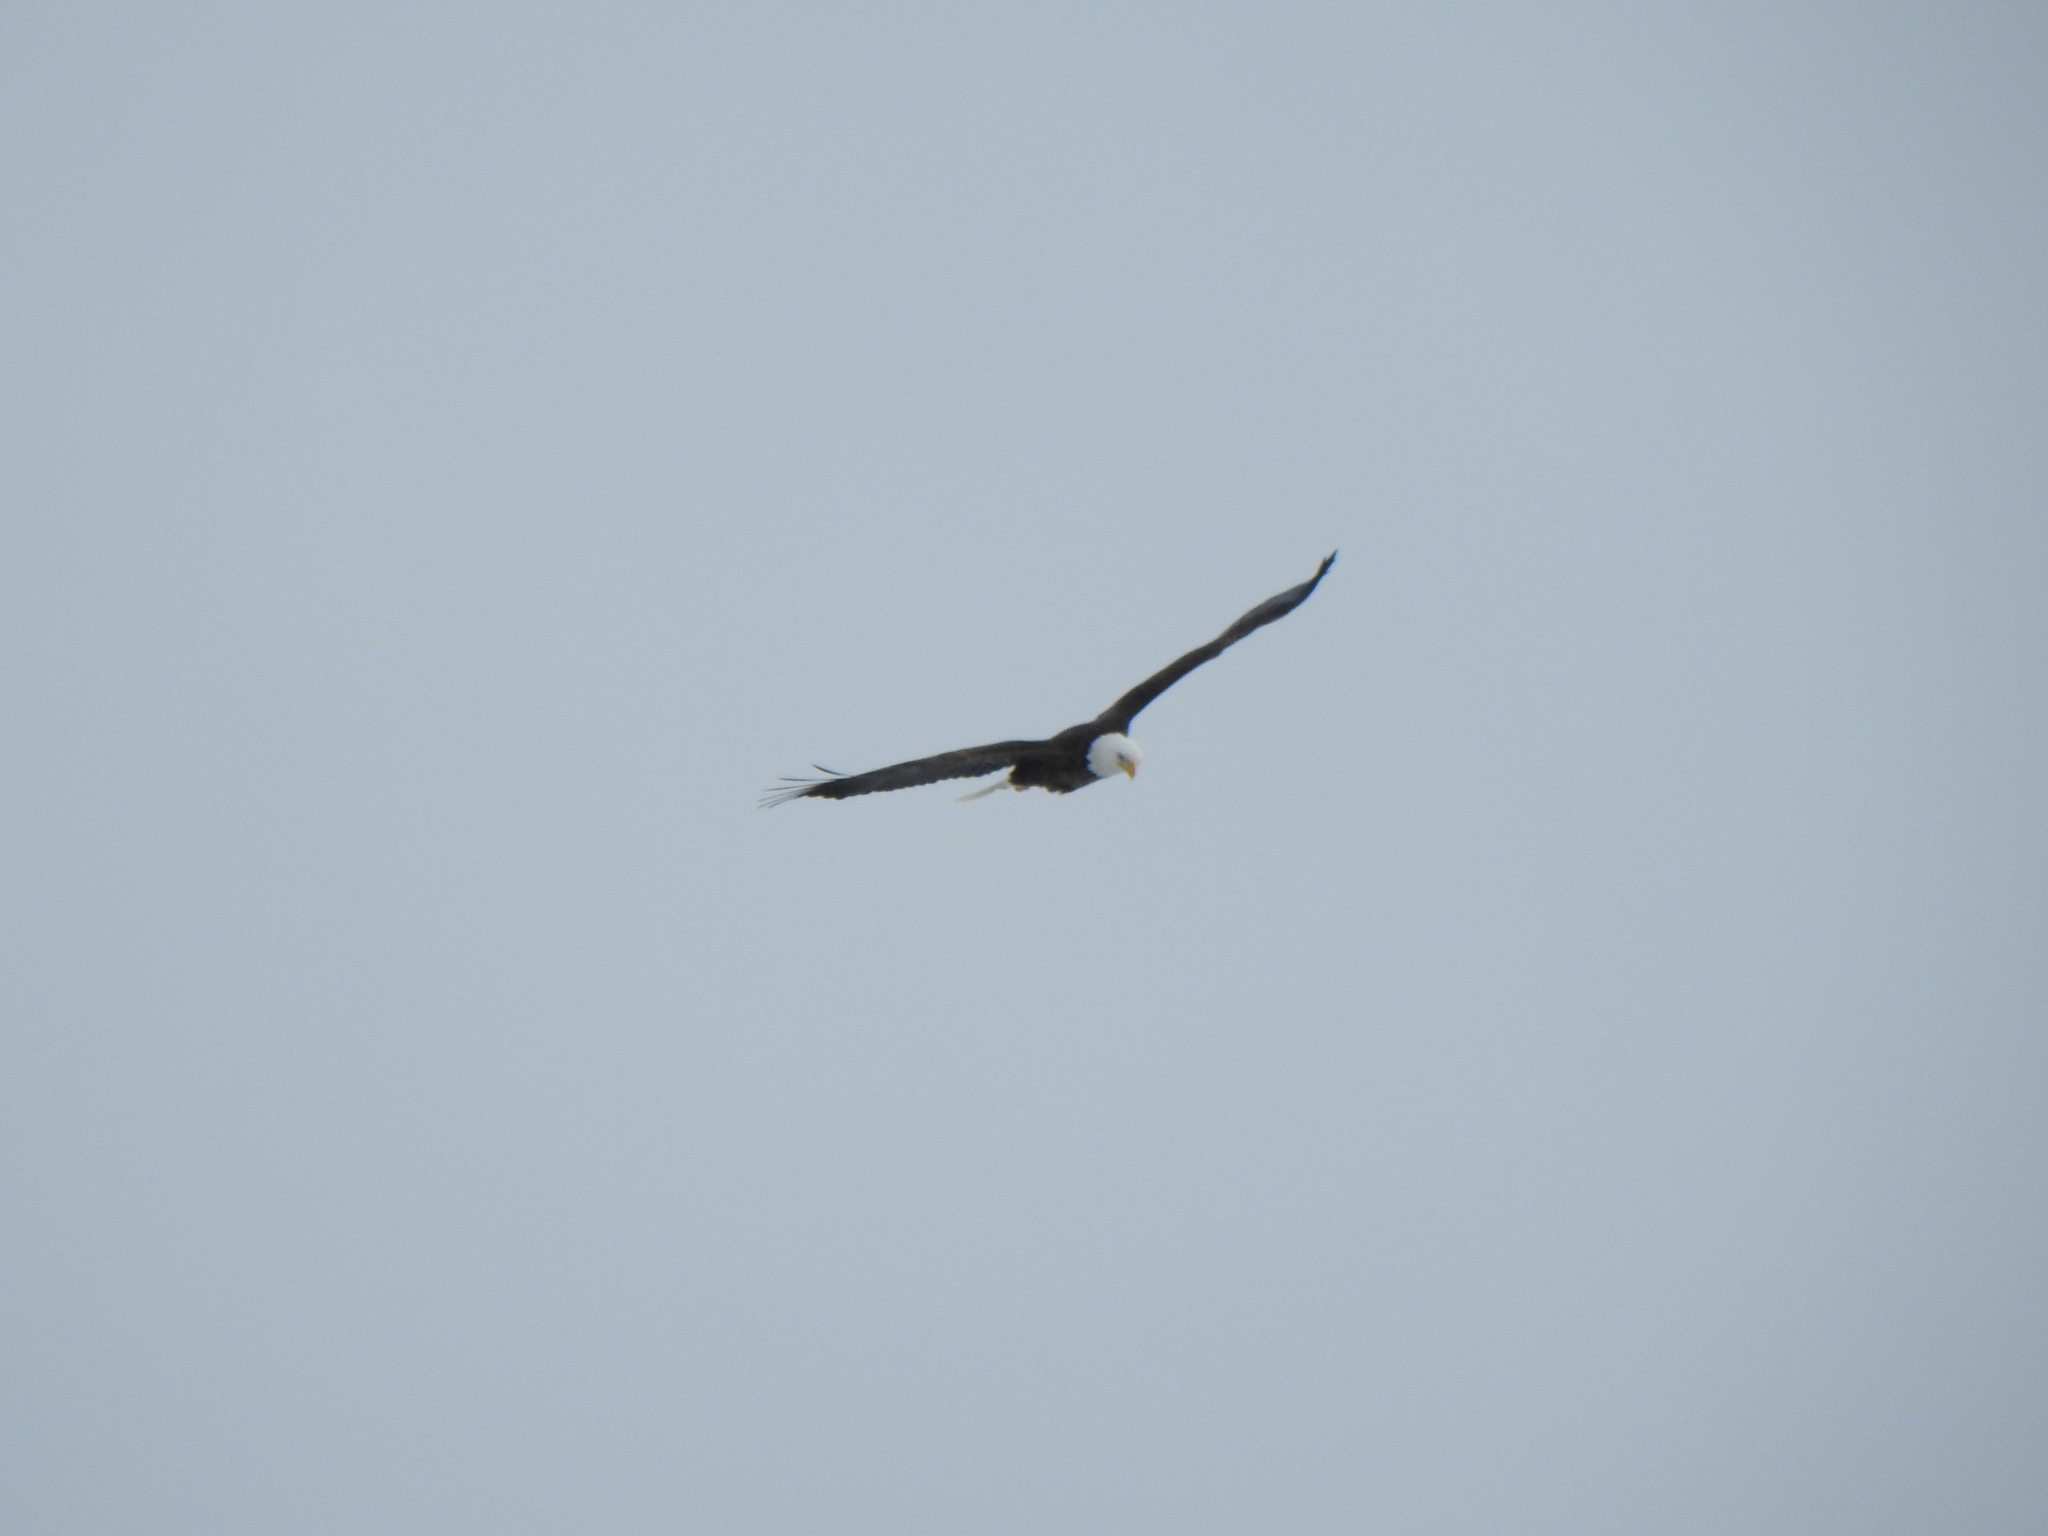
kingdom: Animalia
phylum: Chordata
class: Aves
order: Accipitriformes
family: Accipitridae
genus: Haliaeetus
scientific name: Haliaeetus leucocephalus
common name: Bald eagle
